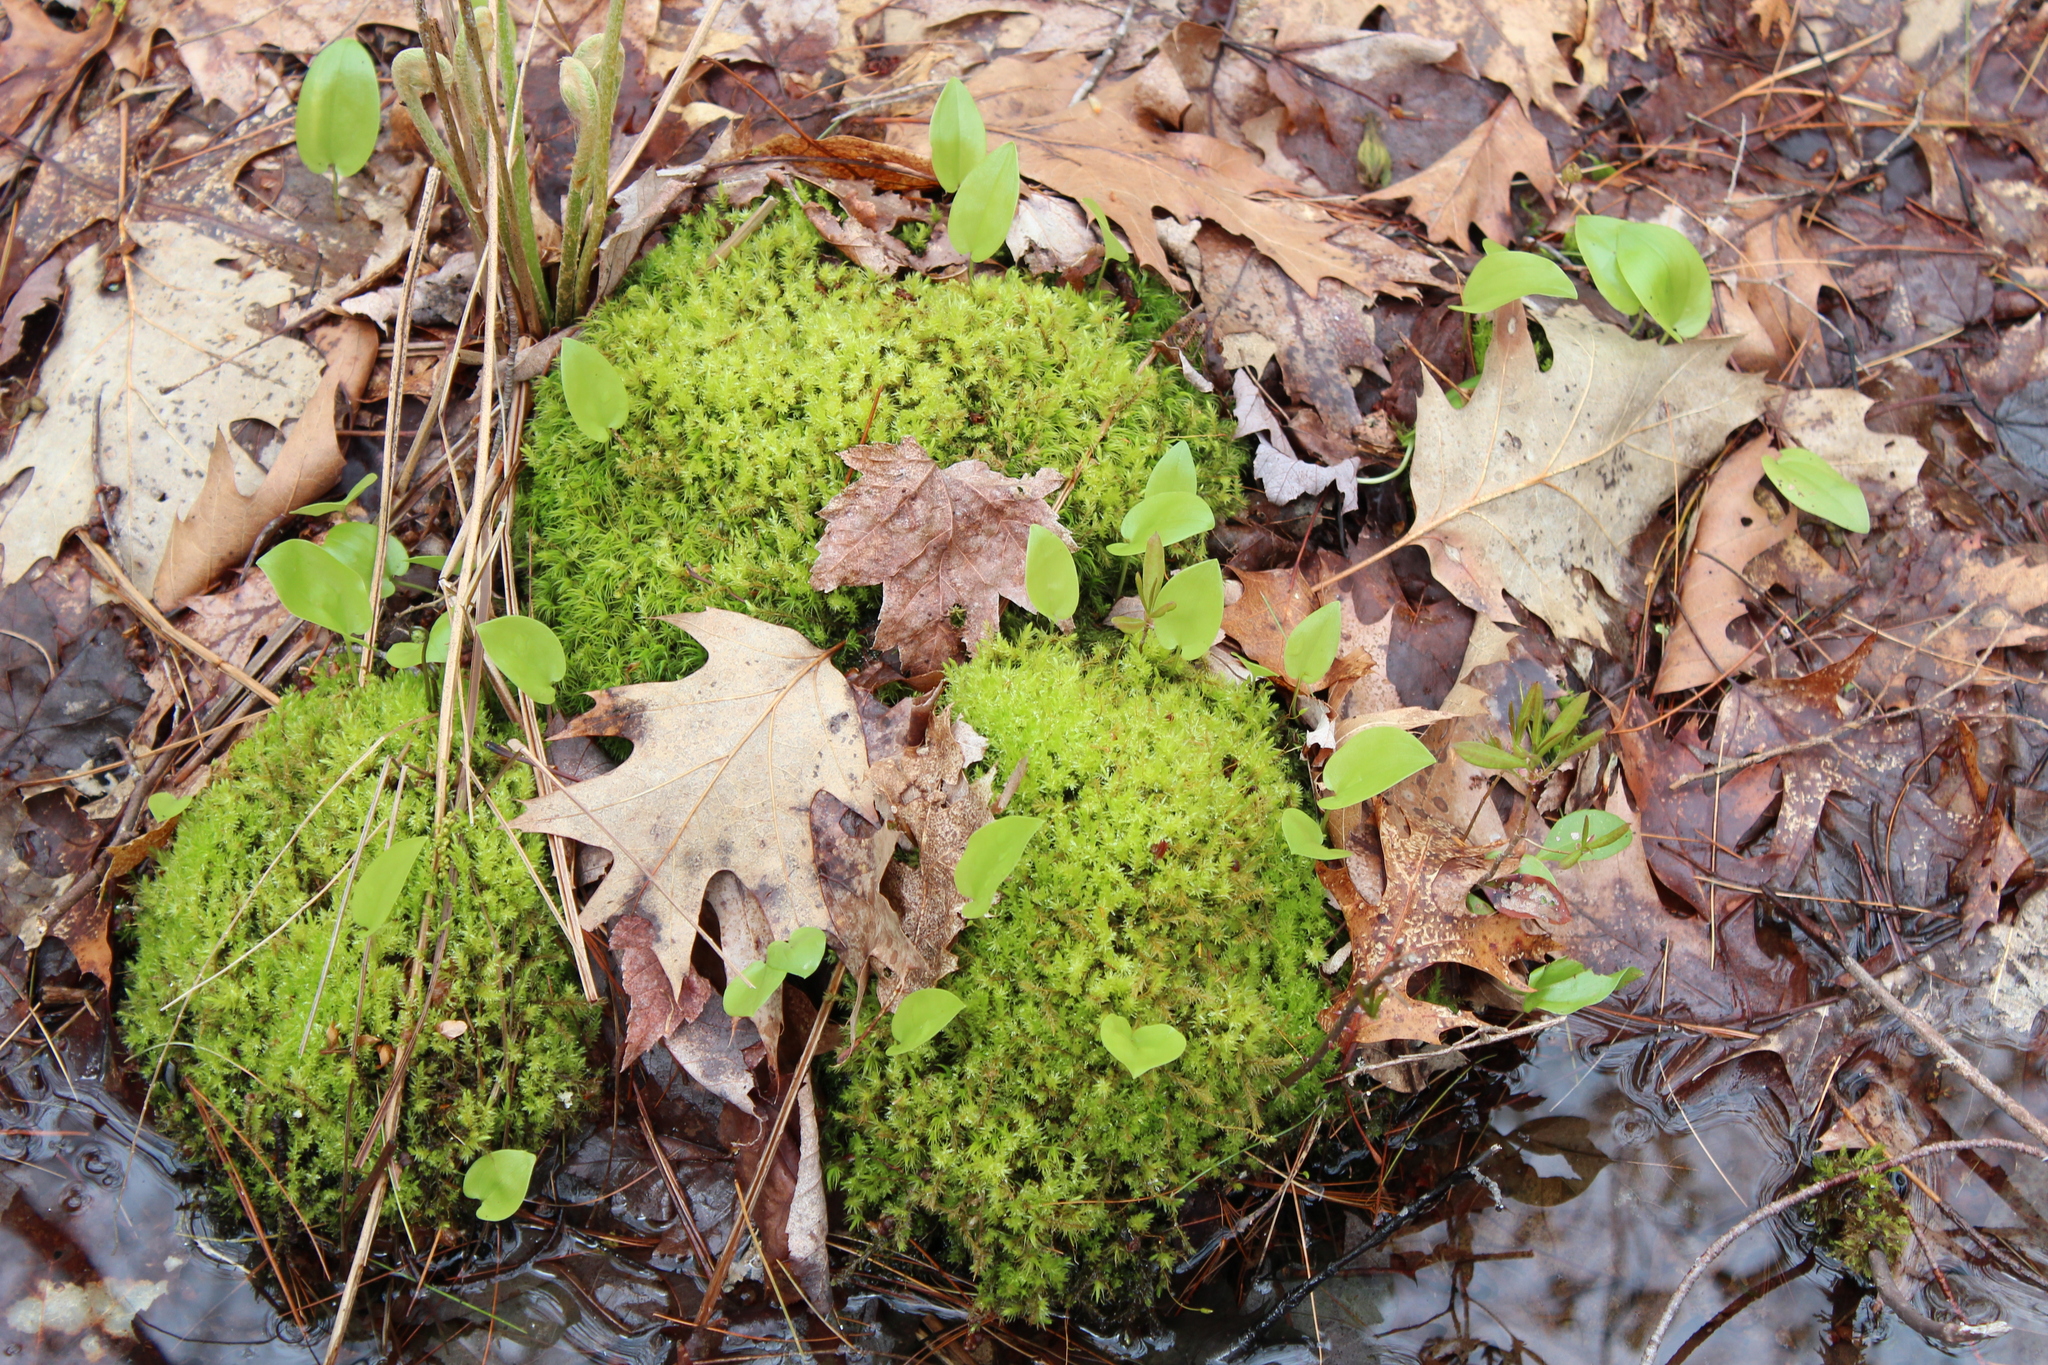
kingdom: Plantae
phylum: Tracheophyta
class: Liliopsida
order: Asparagales
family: Asparagaceae
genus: Maianthemum
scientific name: Maianthemum canadense
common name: False lily-of-the-valley
